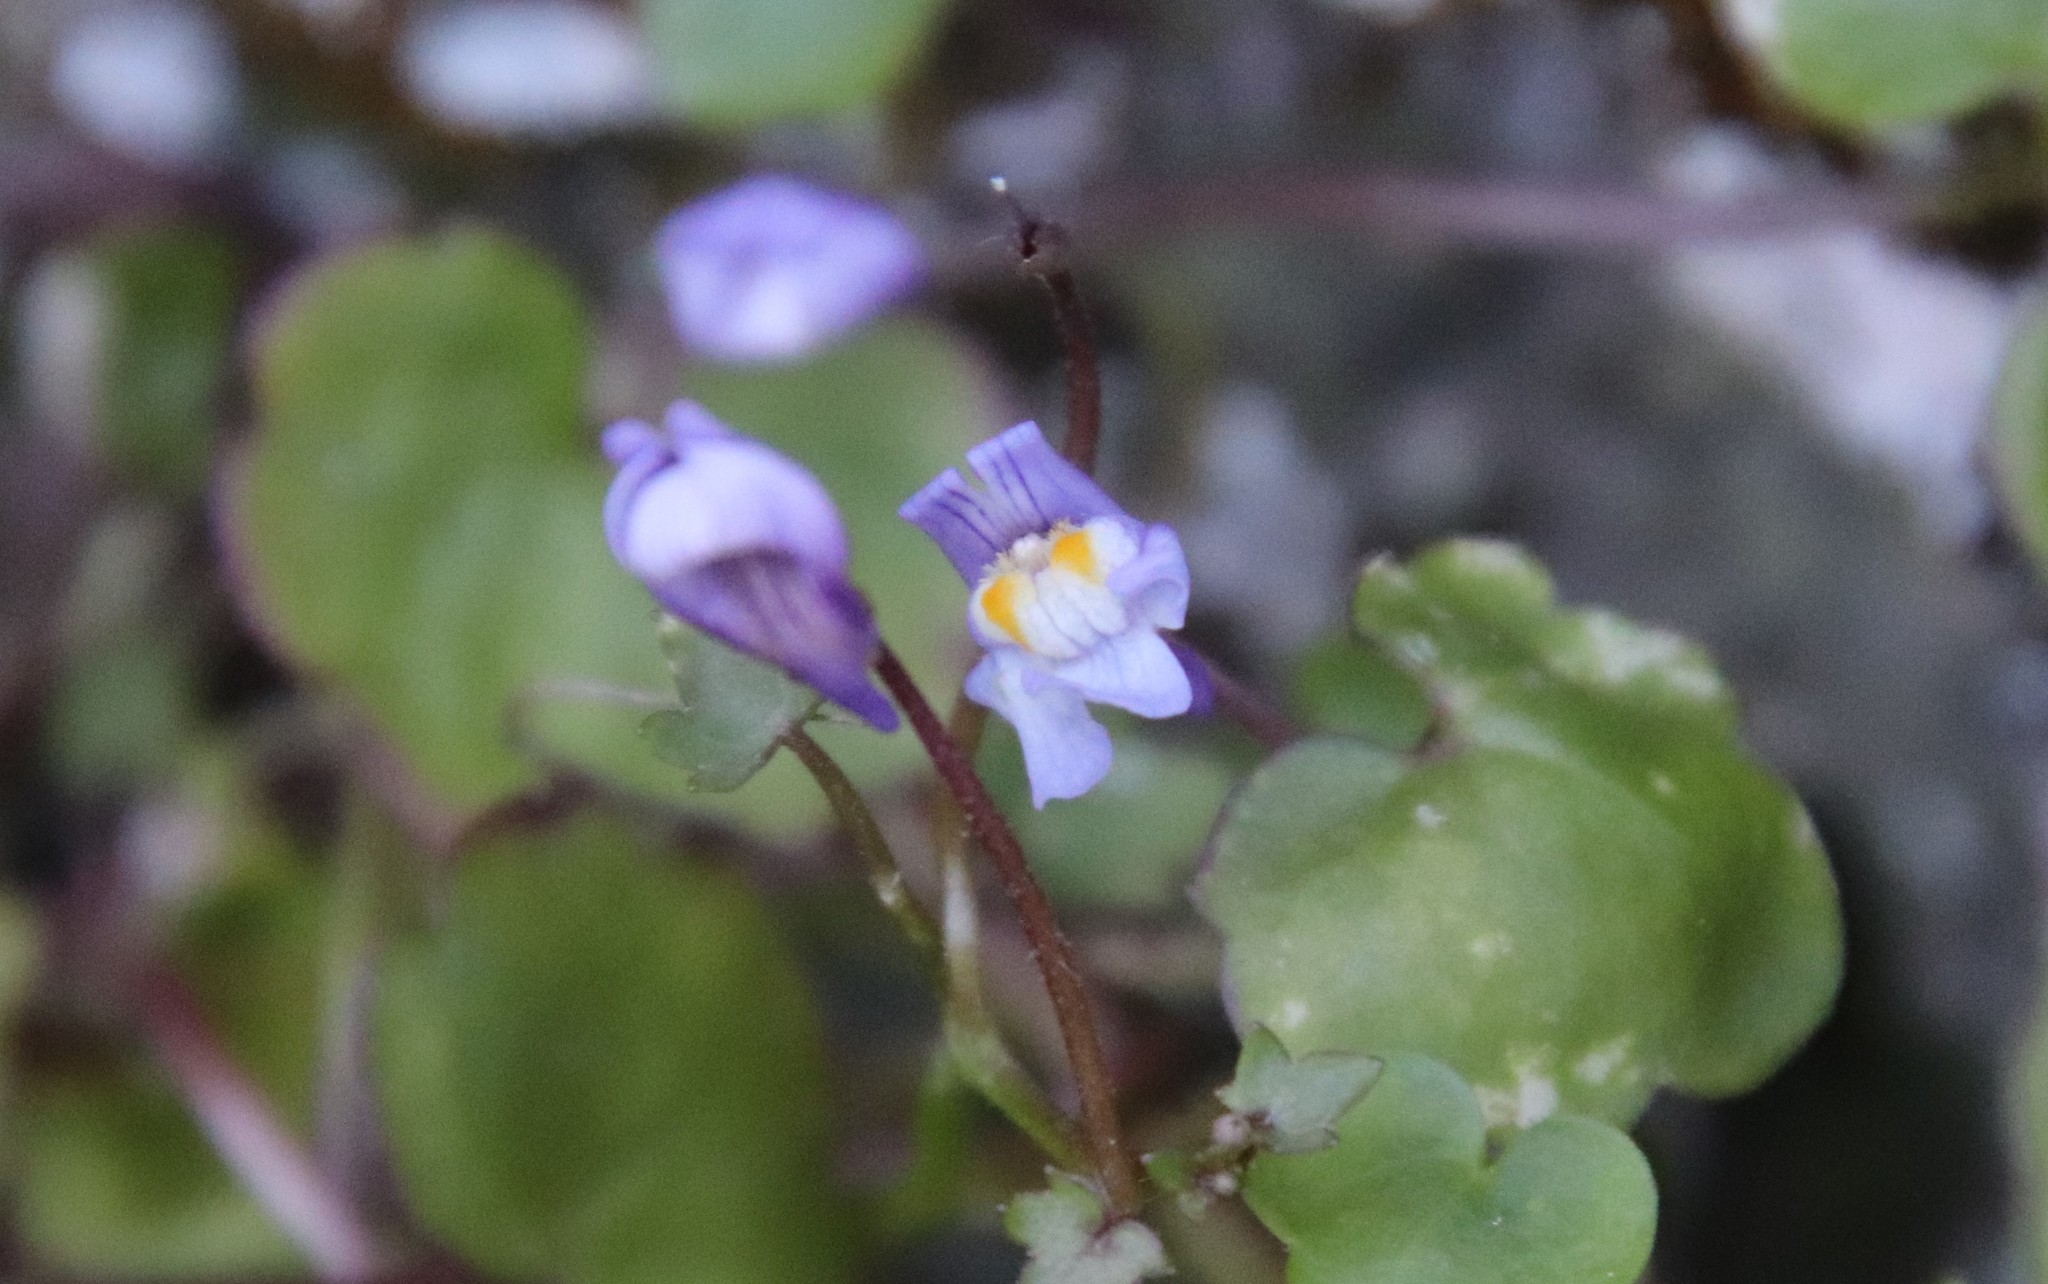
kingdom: Plantae
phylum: Tracheophyta
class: Magnoliopsida
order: Lamiales
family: Plantaginaceae
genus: Cymbalaria
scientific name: Cymbalaria muralis
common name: Ivy-leaved toadflax
